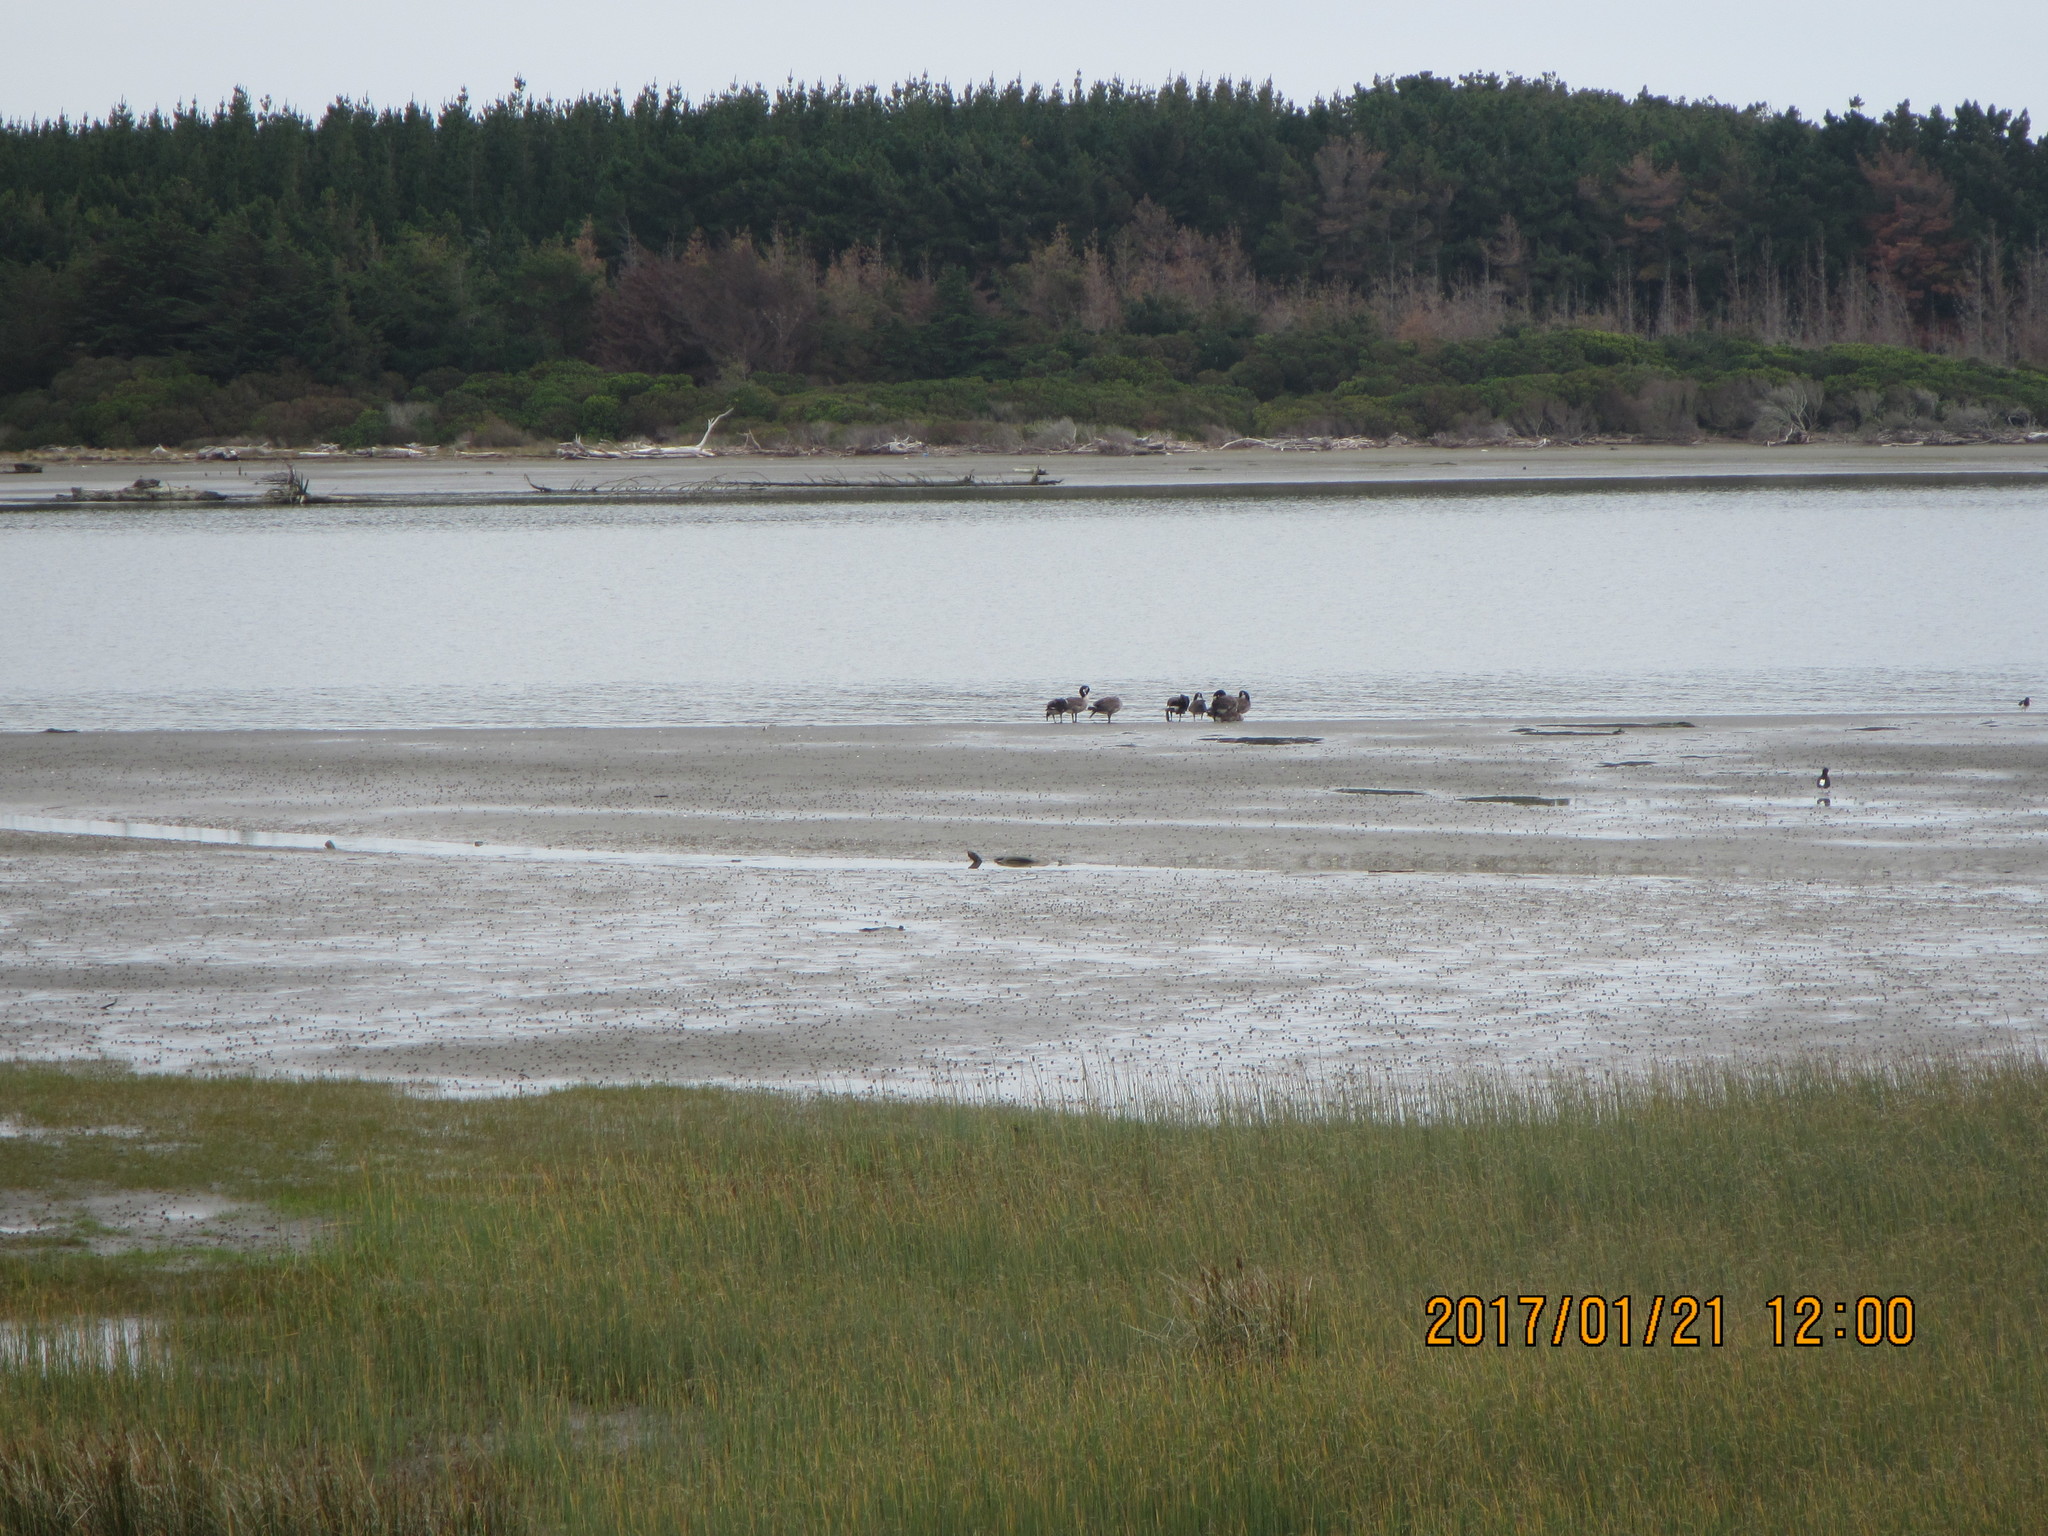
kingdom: Animalia
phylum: Chordata
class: Aves
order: Anseriformes
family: Anatidae
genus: Branta
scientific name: Branta canadensis
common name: Canada goose
